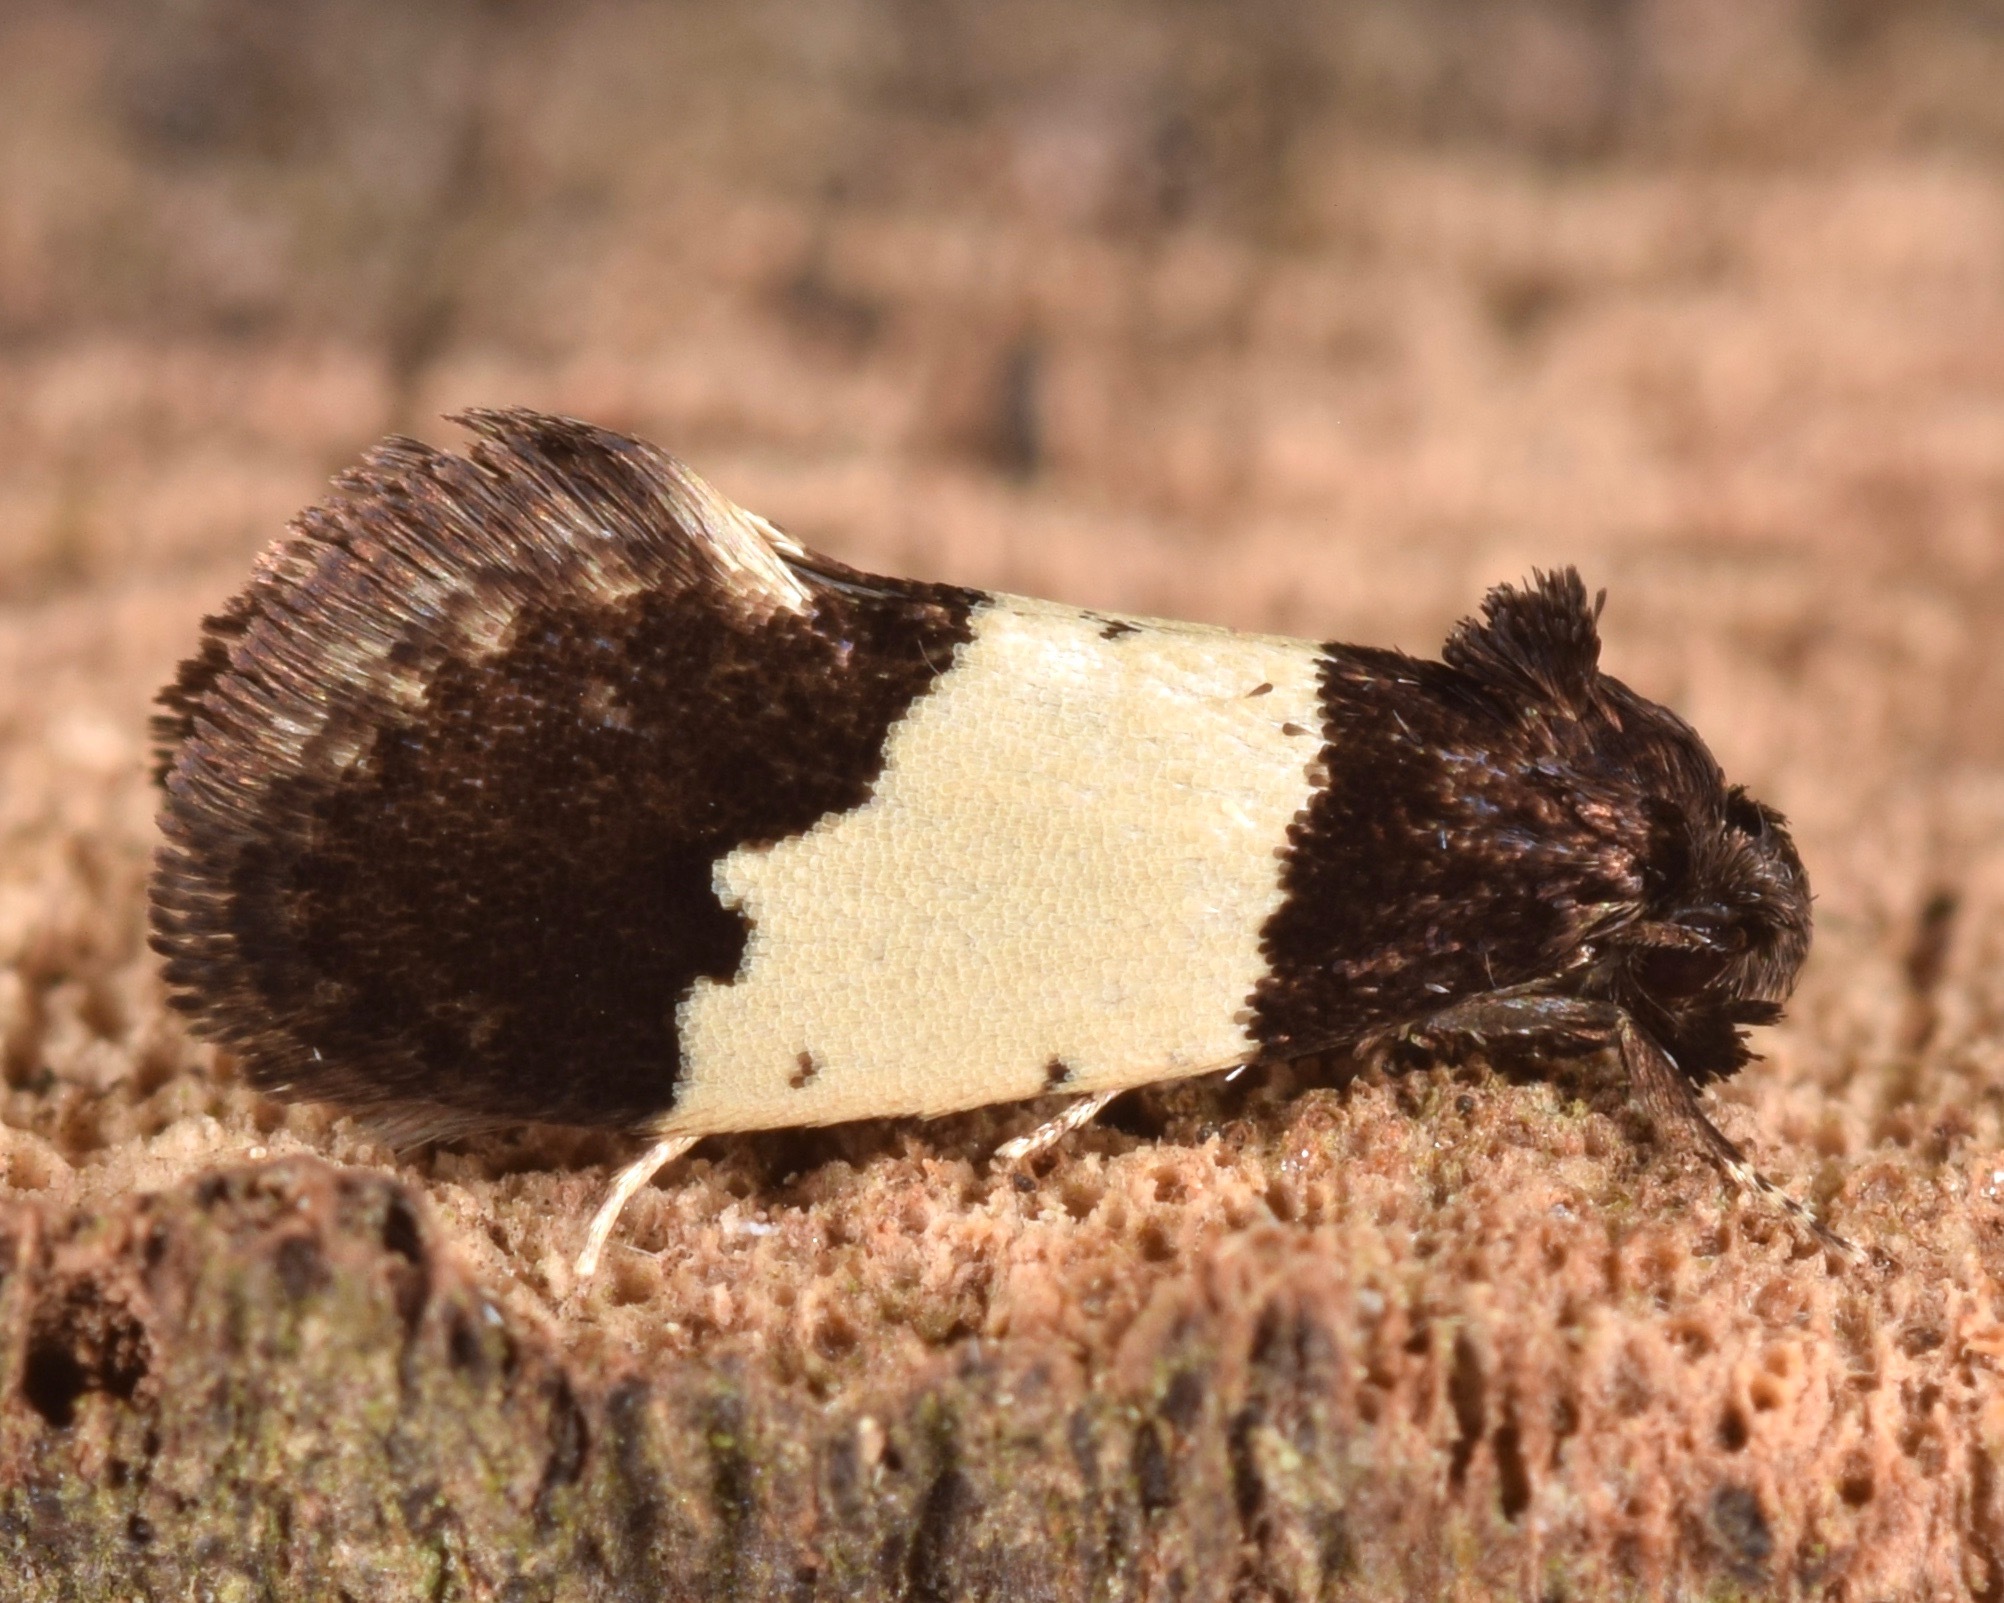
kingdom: Animalia
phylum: Arthropoda
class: Insecta
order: Lepidoptera
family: Psychidae
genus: Kearfottia
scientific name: Kearfottia albifasciella
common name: White-patched kearfottia
